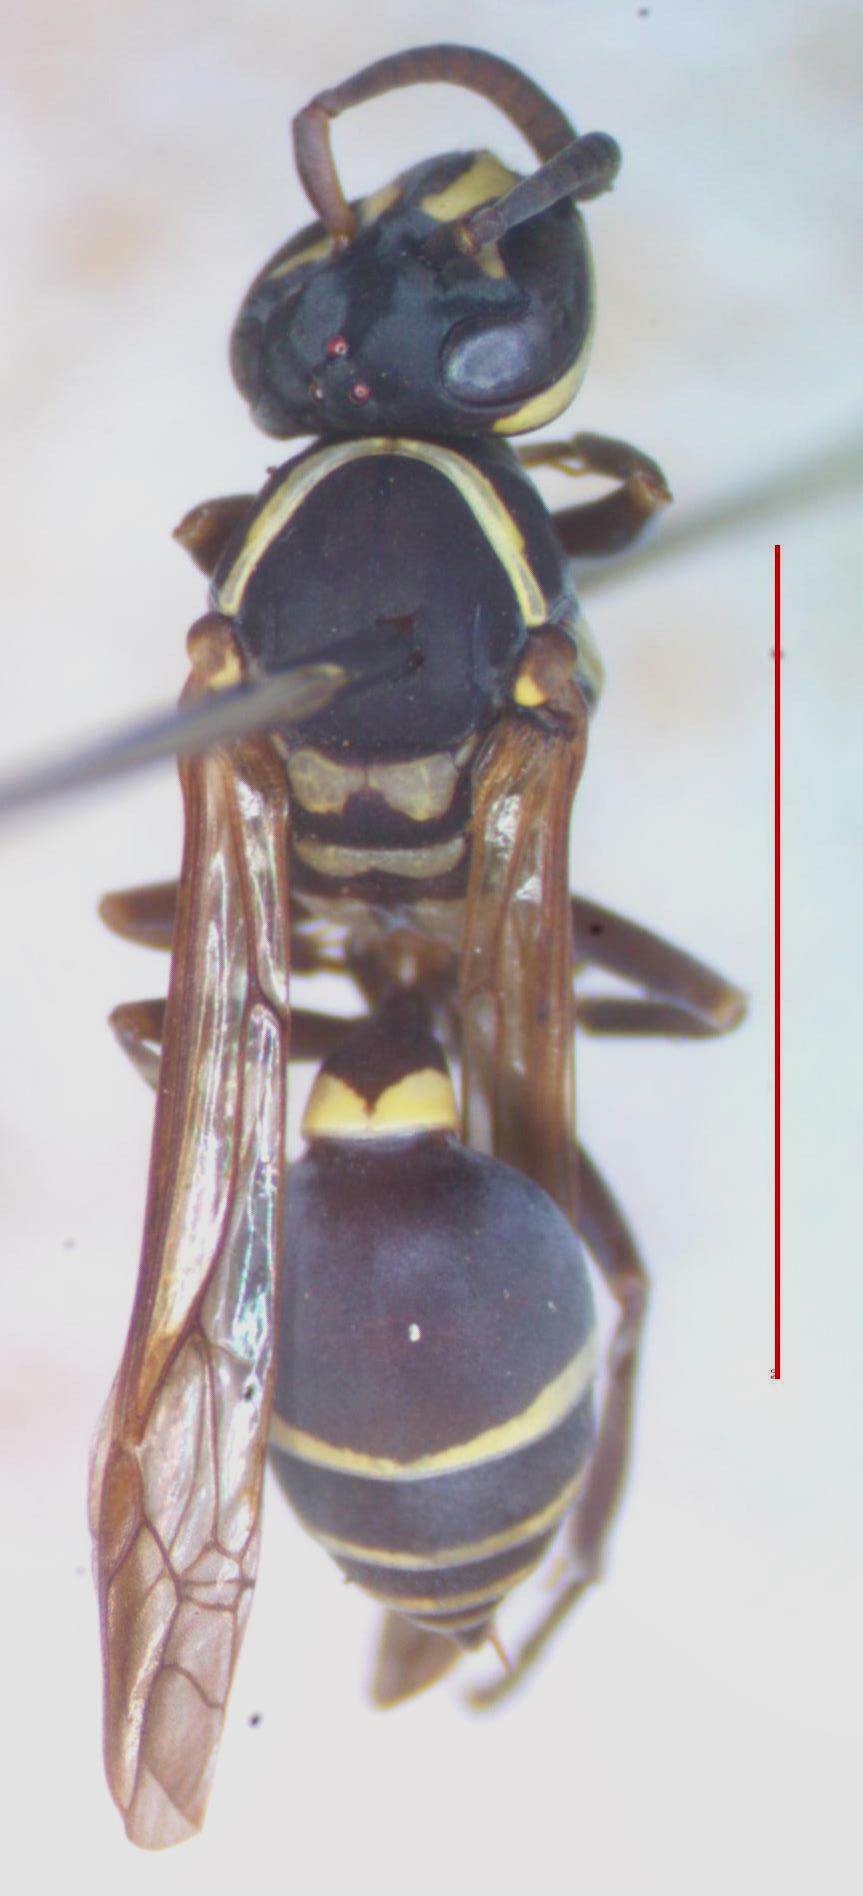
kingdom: Animalia
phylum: Arthropoda
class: Insecta
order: Hymenoptera
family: Eumenidae
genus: Polybia
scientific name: Polybia occidentalis
